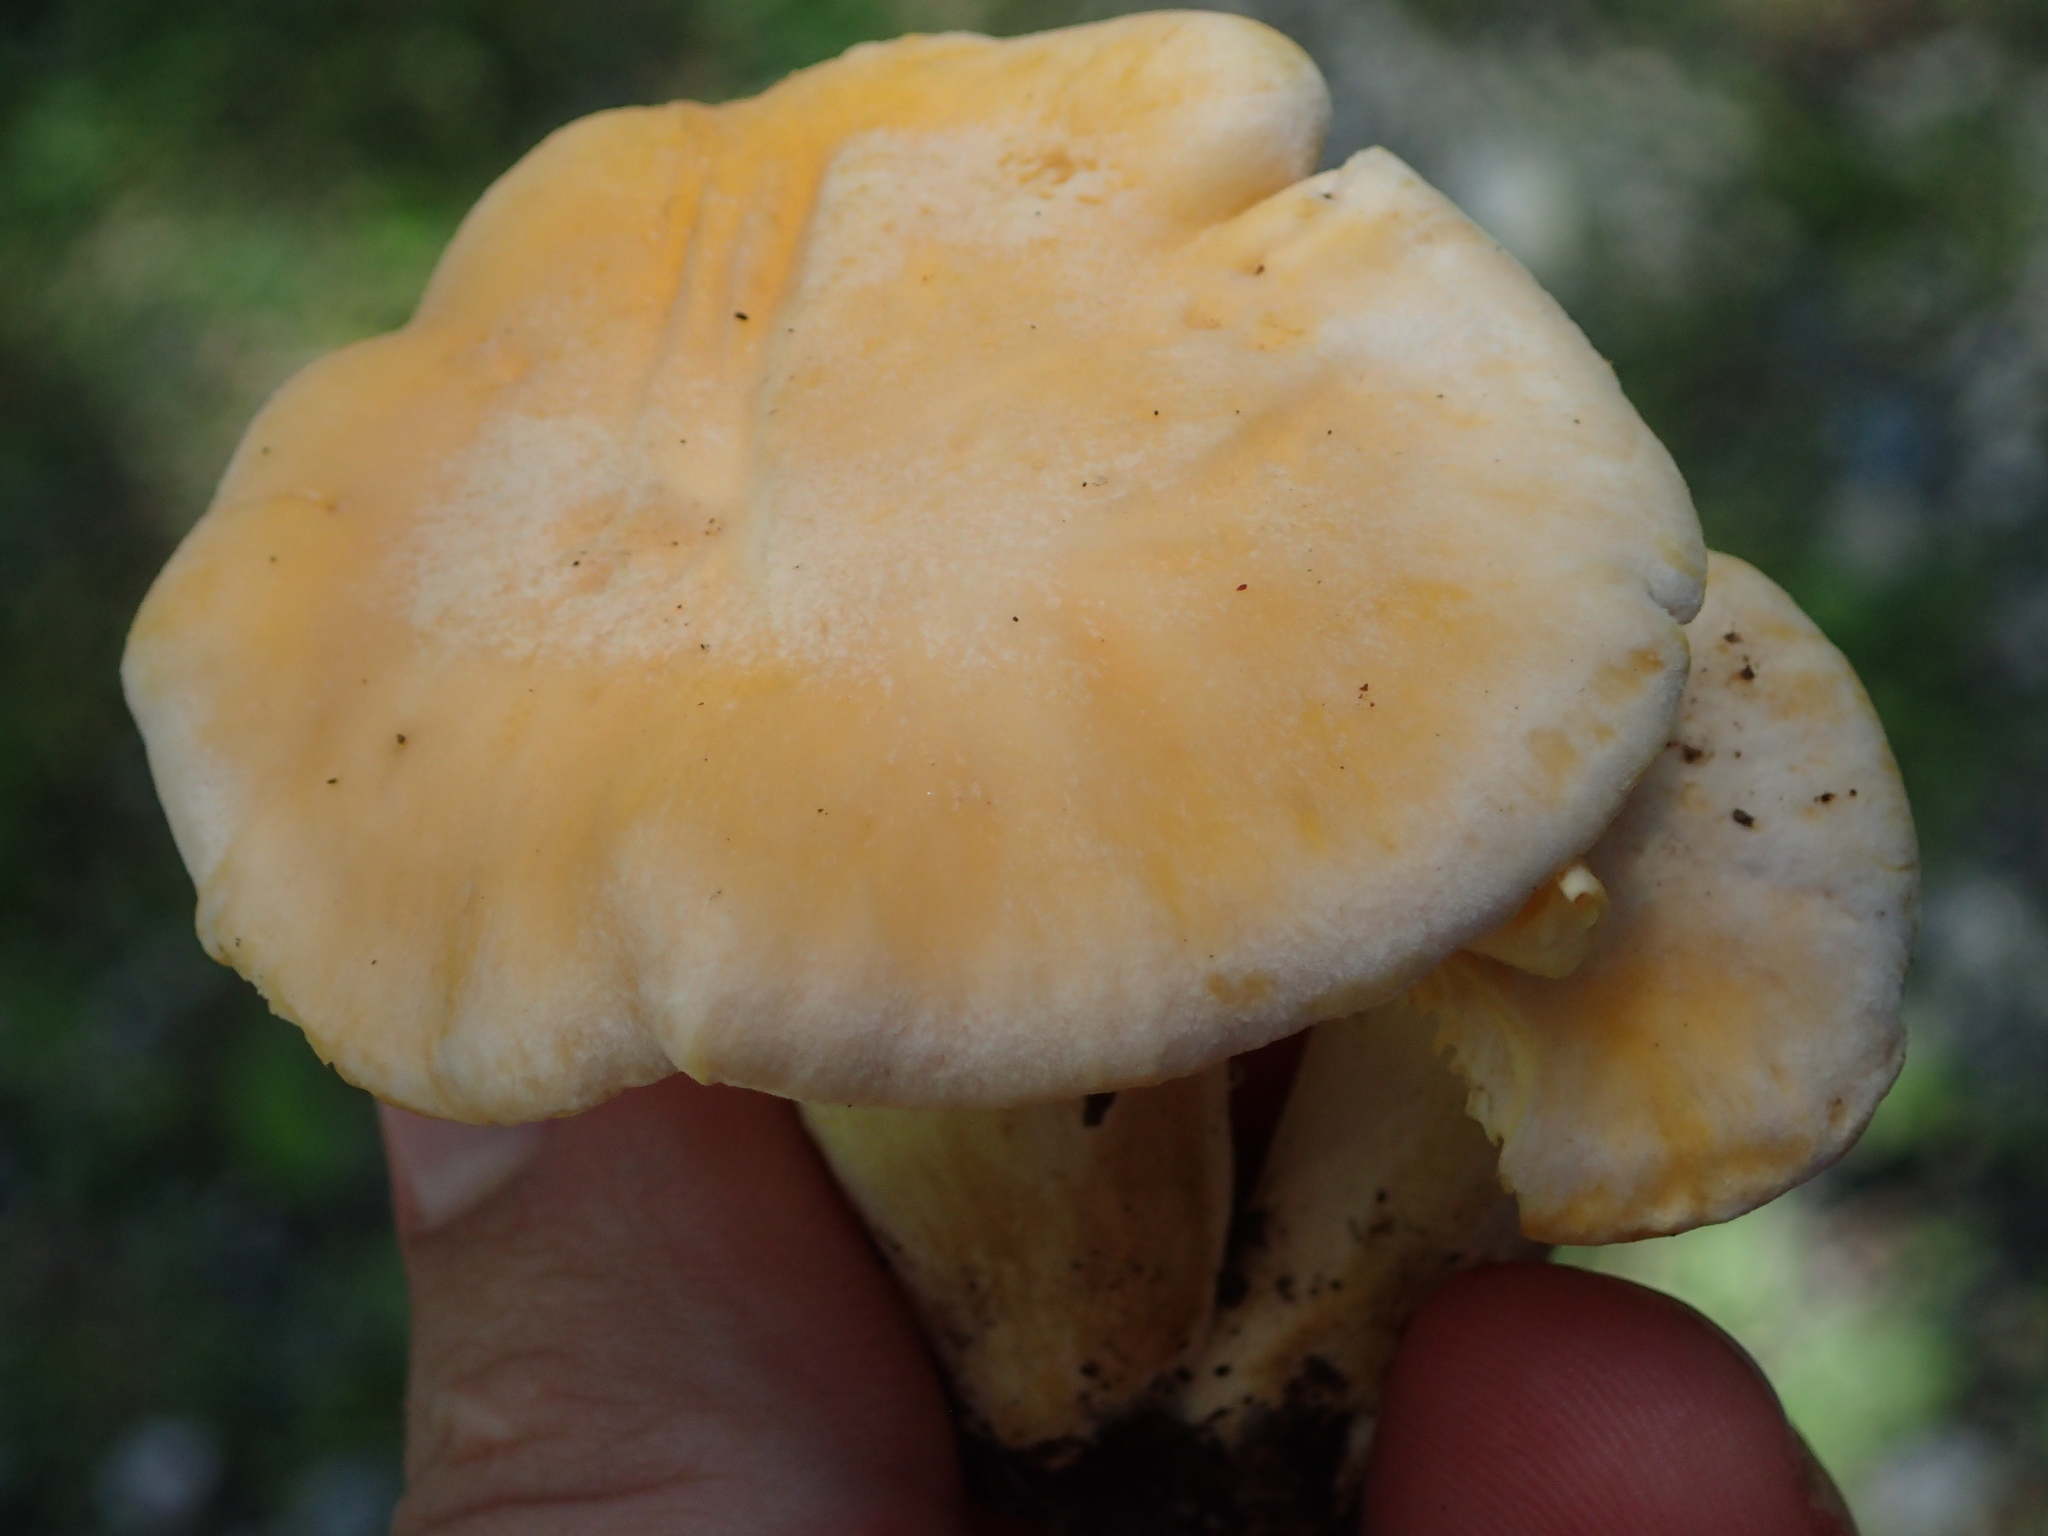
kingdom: Fungi
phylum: Basidiomycota
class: Agaricomycetes
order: Cantharellales
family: Hydnaceae
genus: Cantharellus
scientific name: Cantharellus pallens
